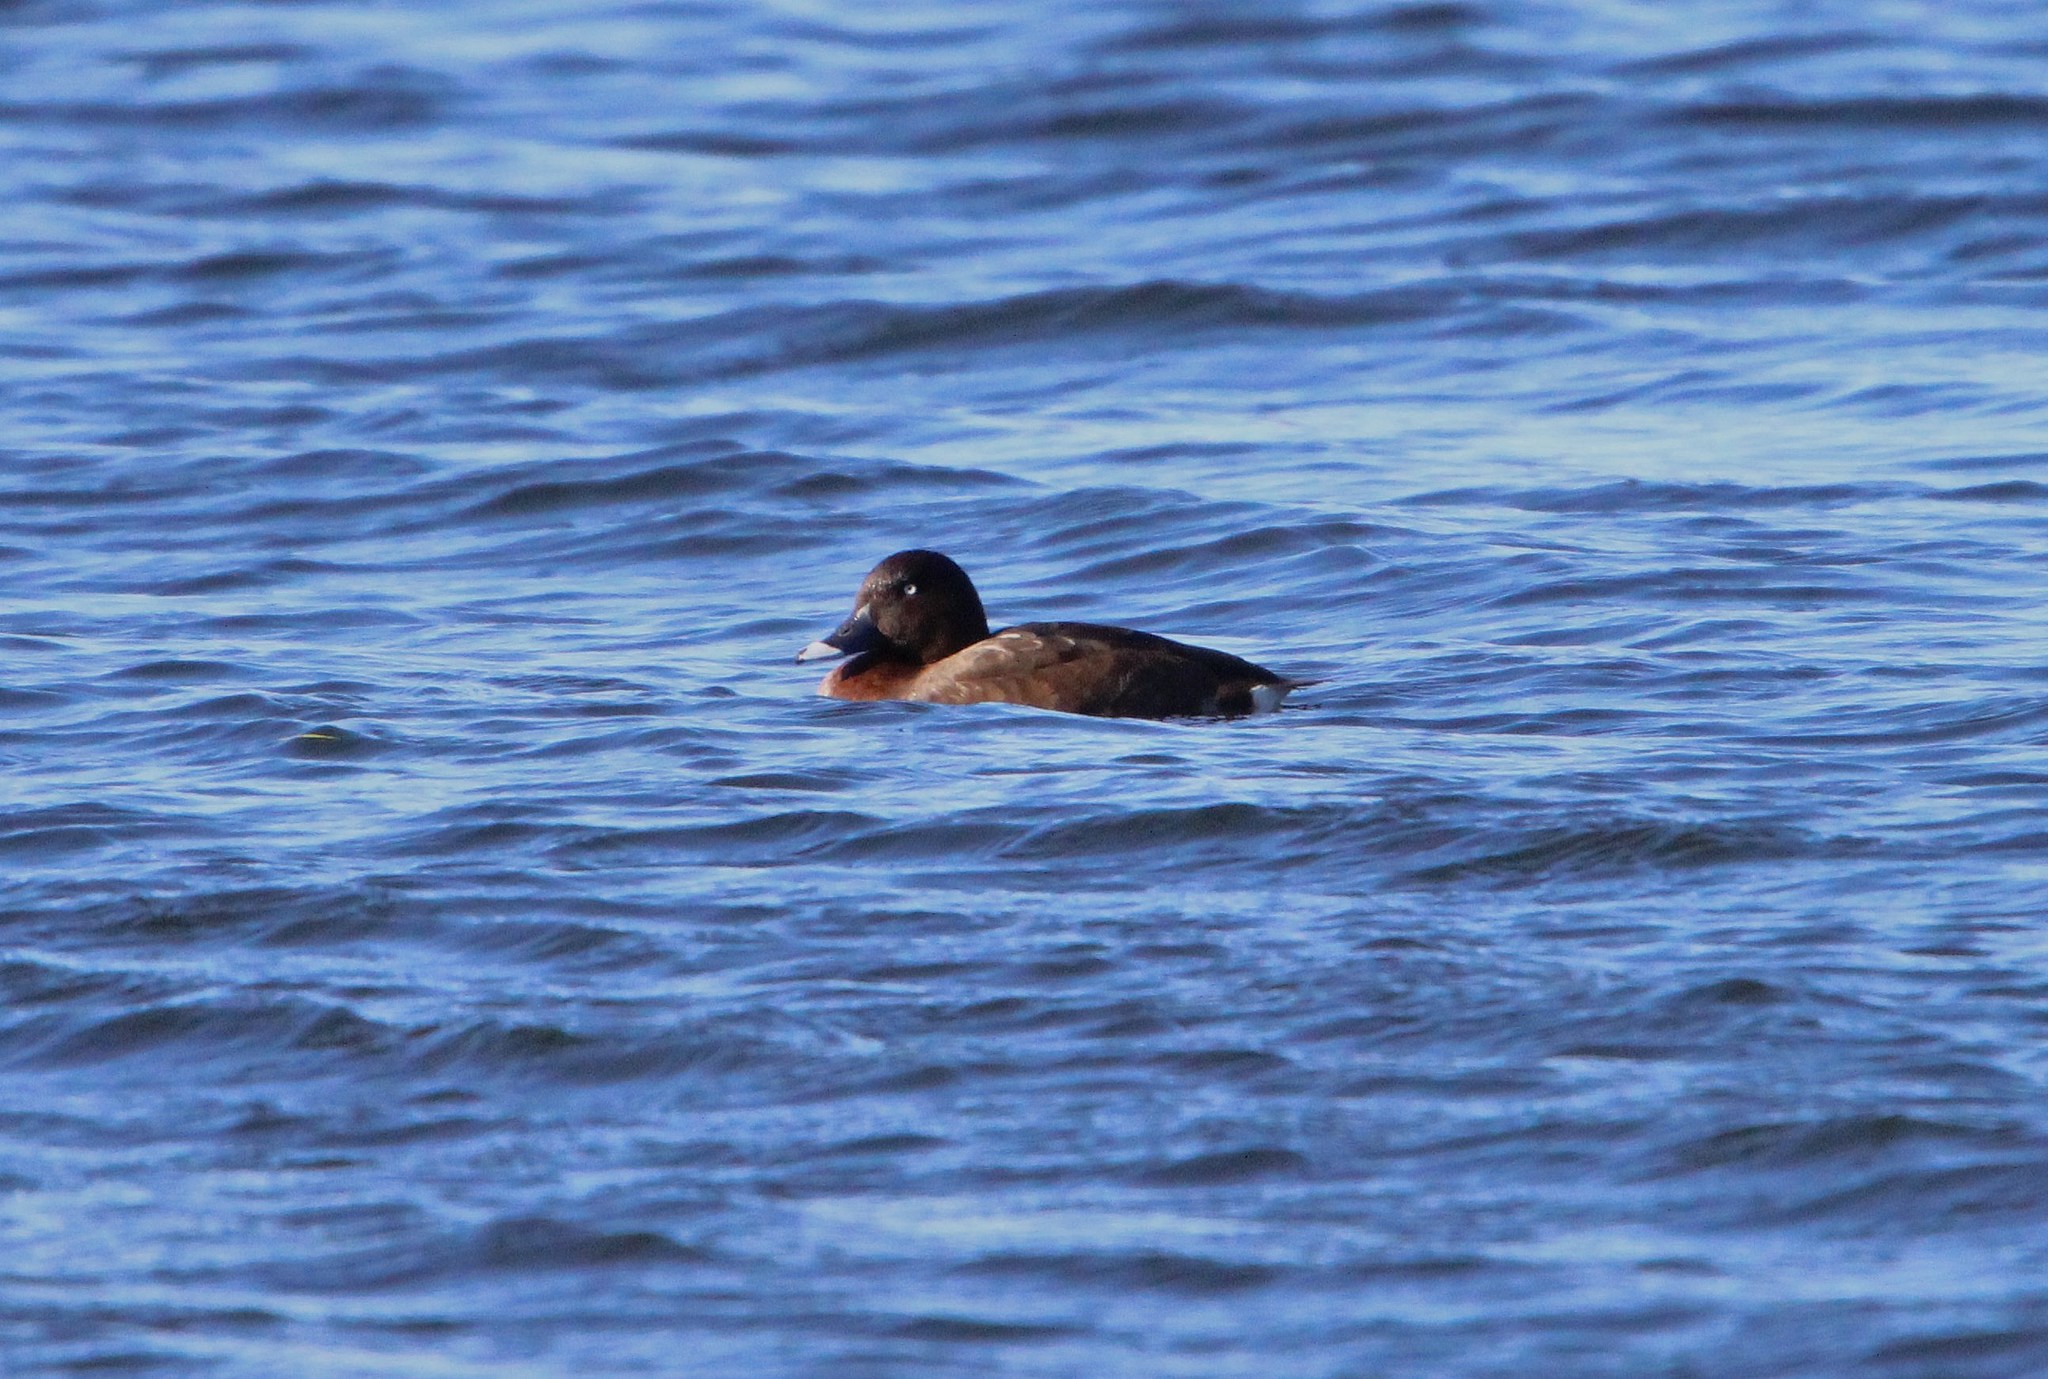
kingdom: Animalia
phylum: Chordata
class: Aves
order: Anseriformes
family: Anatidae
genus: Aythya
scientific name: Aythya australis
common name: Hardhead
